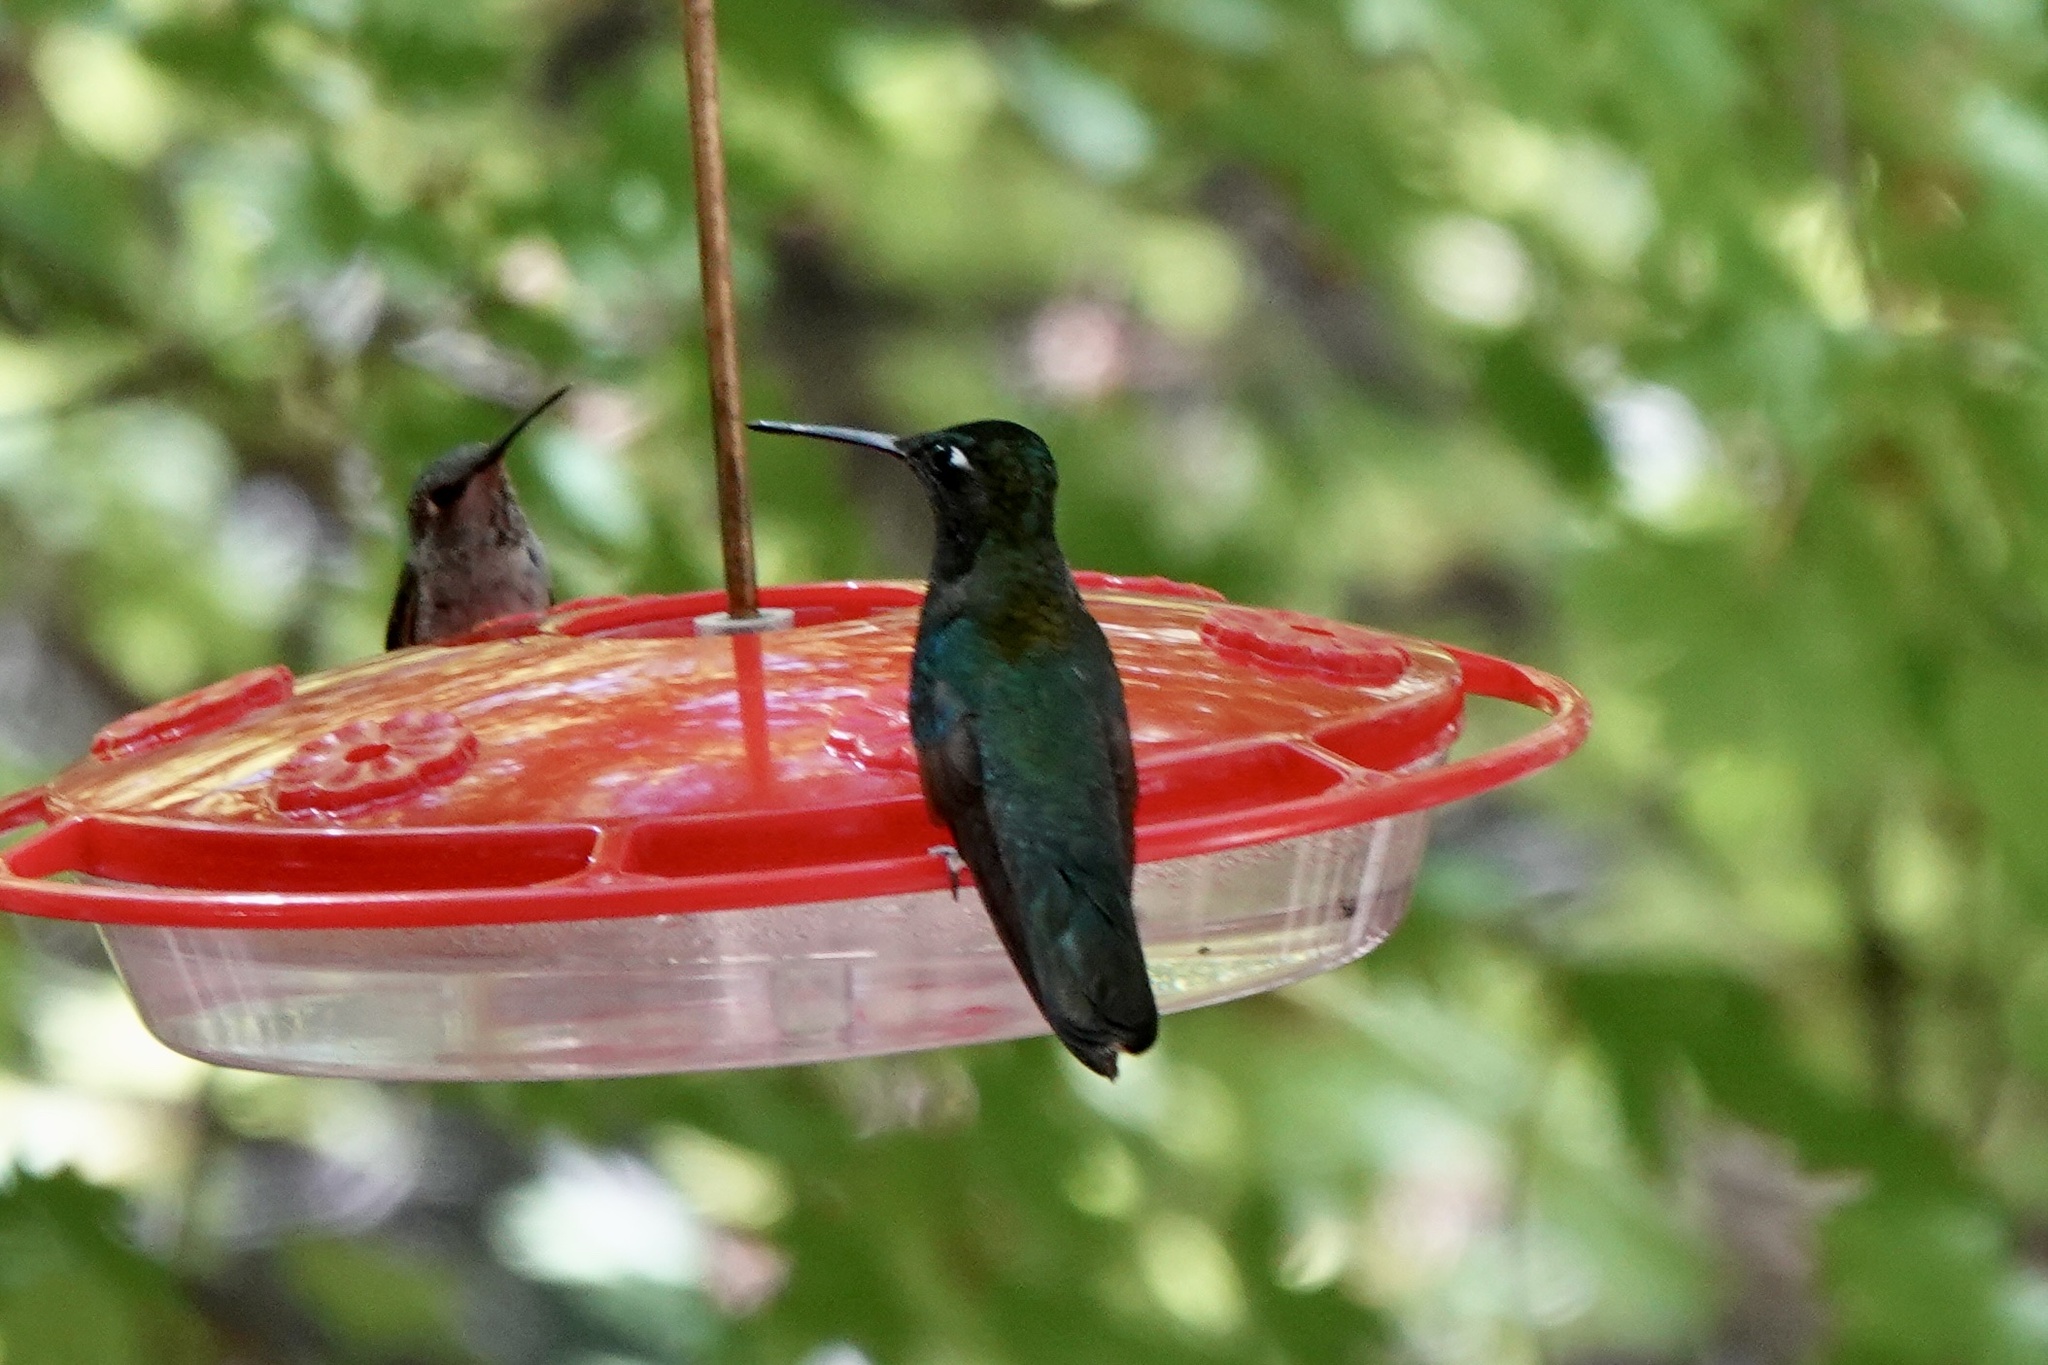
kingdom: Animalia
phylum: Chordata
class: Aves
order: Apodiformes
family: Trochilidae
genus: Eugenes
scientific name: Eugenes fulgens
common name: Magnificent hummingbird
